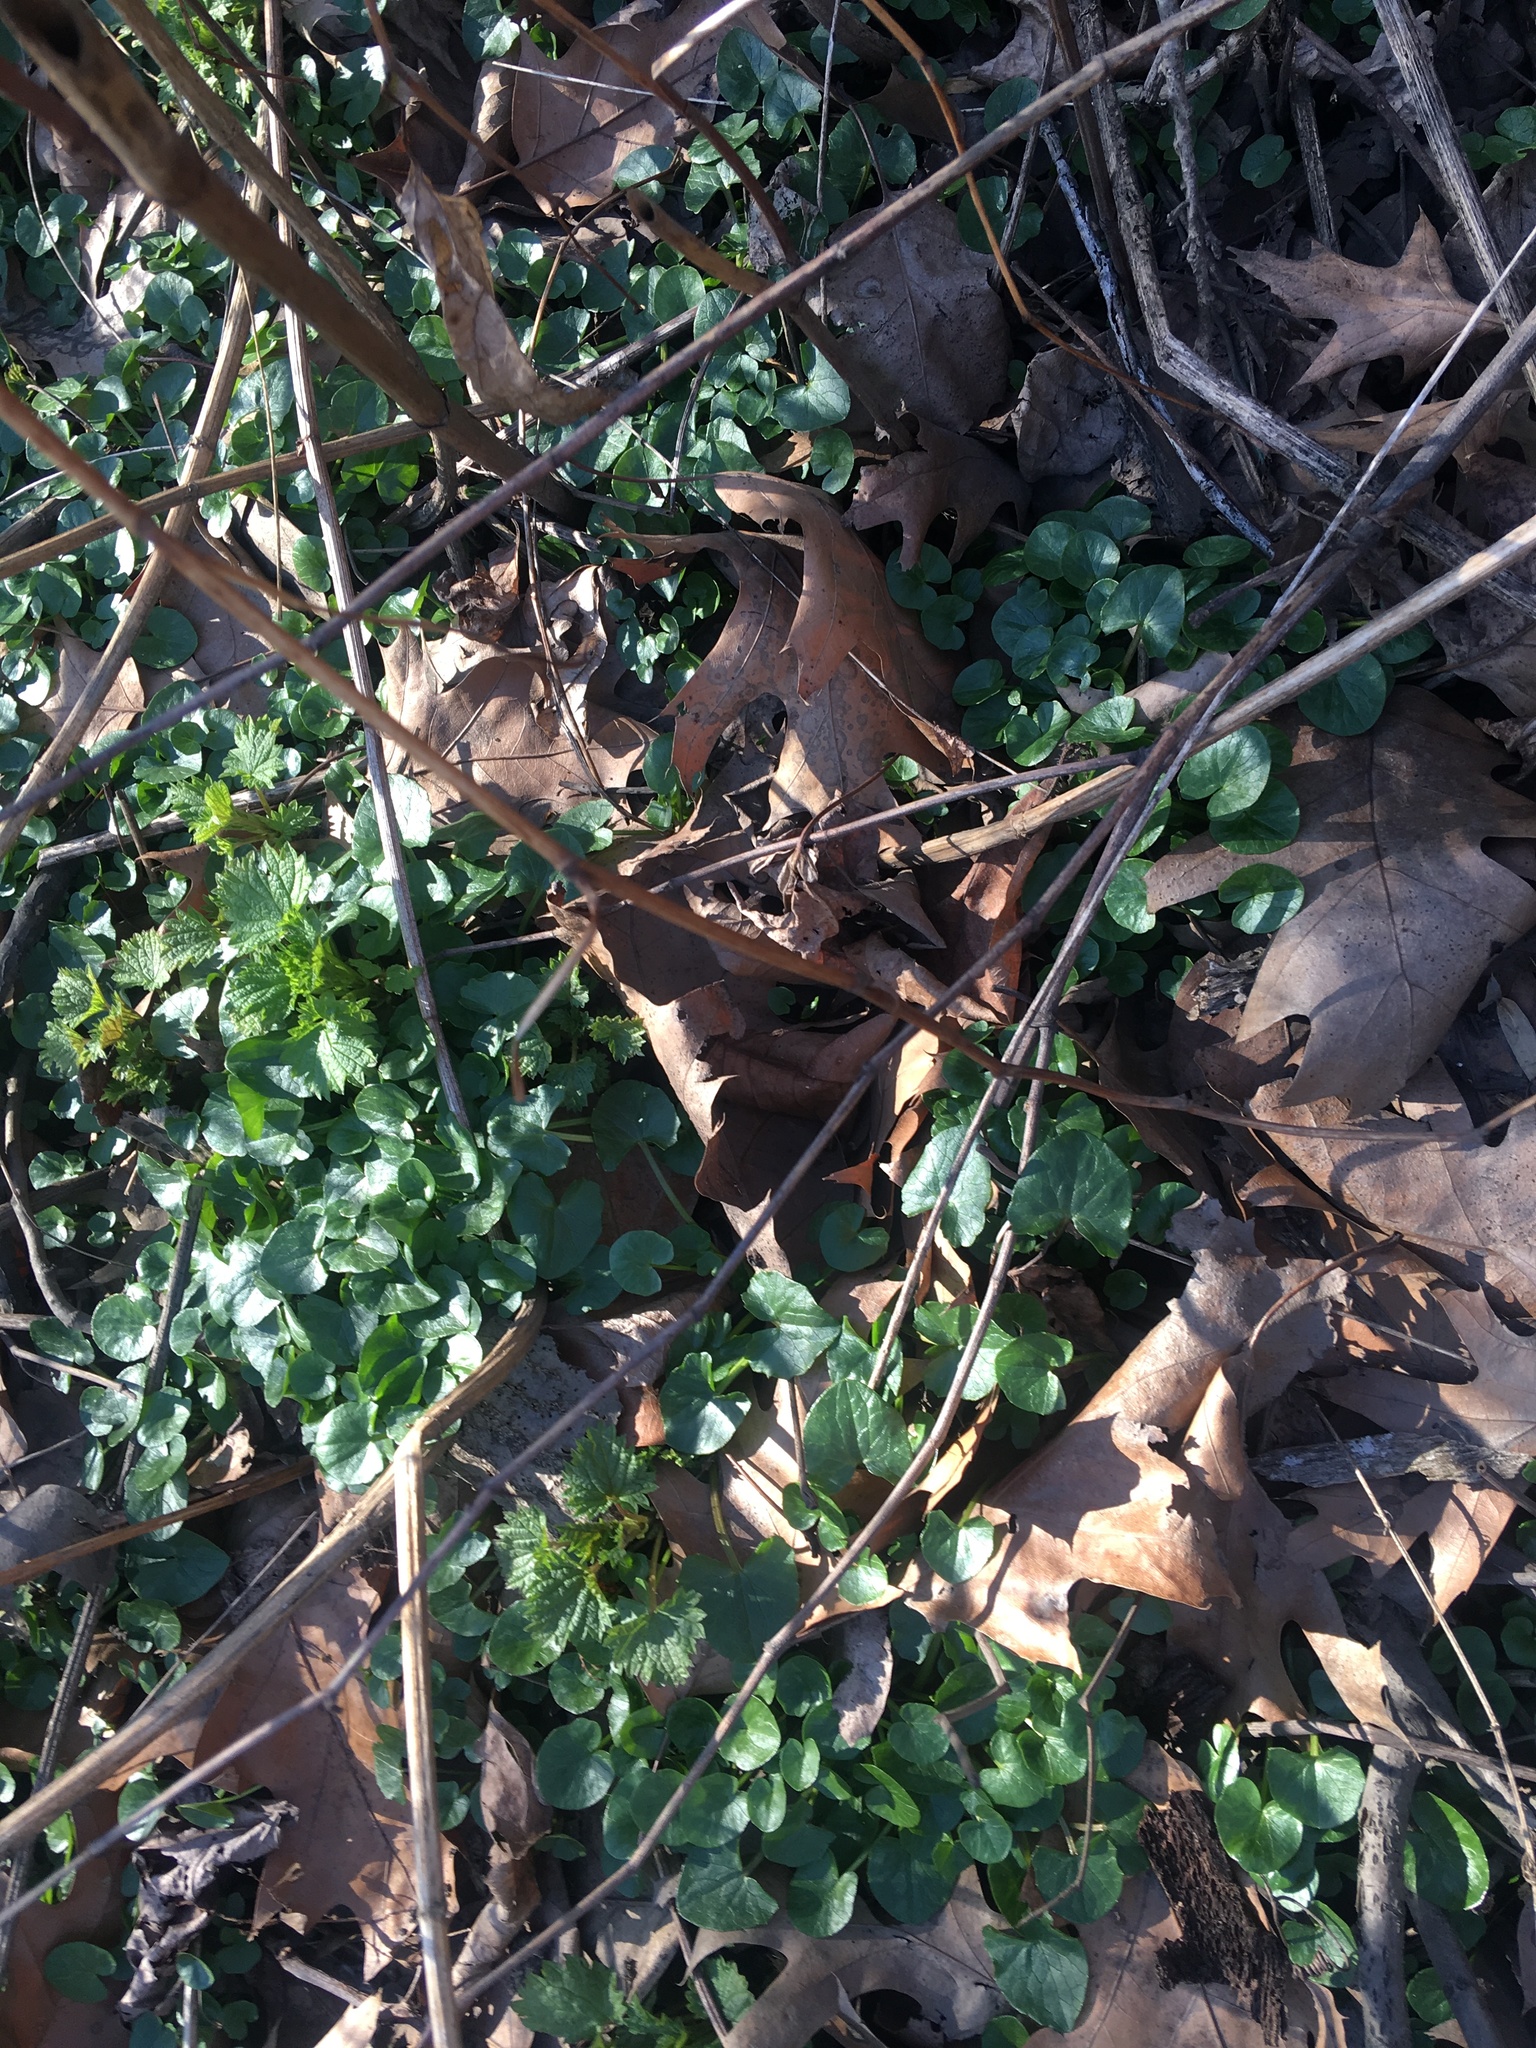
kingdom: Plantae
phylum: Tracheophyta
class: Magnoliopsida
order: Ranunculales
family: Ranunculaceae
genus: Ficaria
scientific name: Ficaria verna
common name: Lesser celandine
